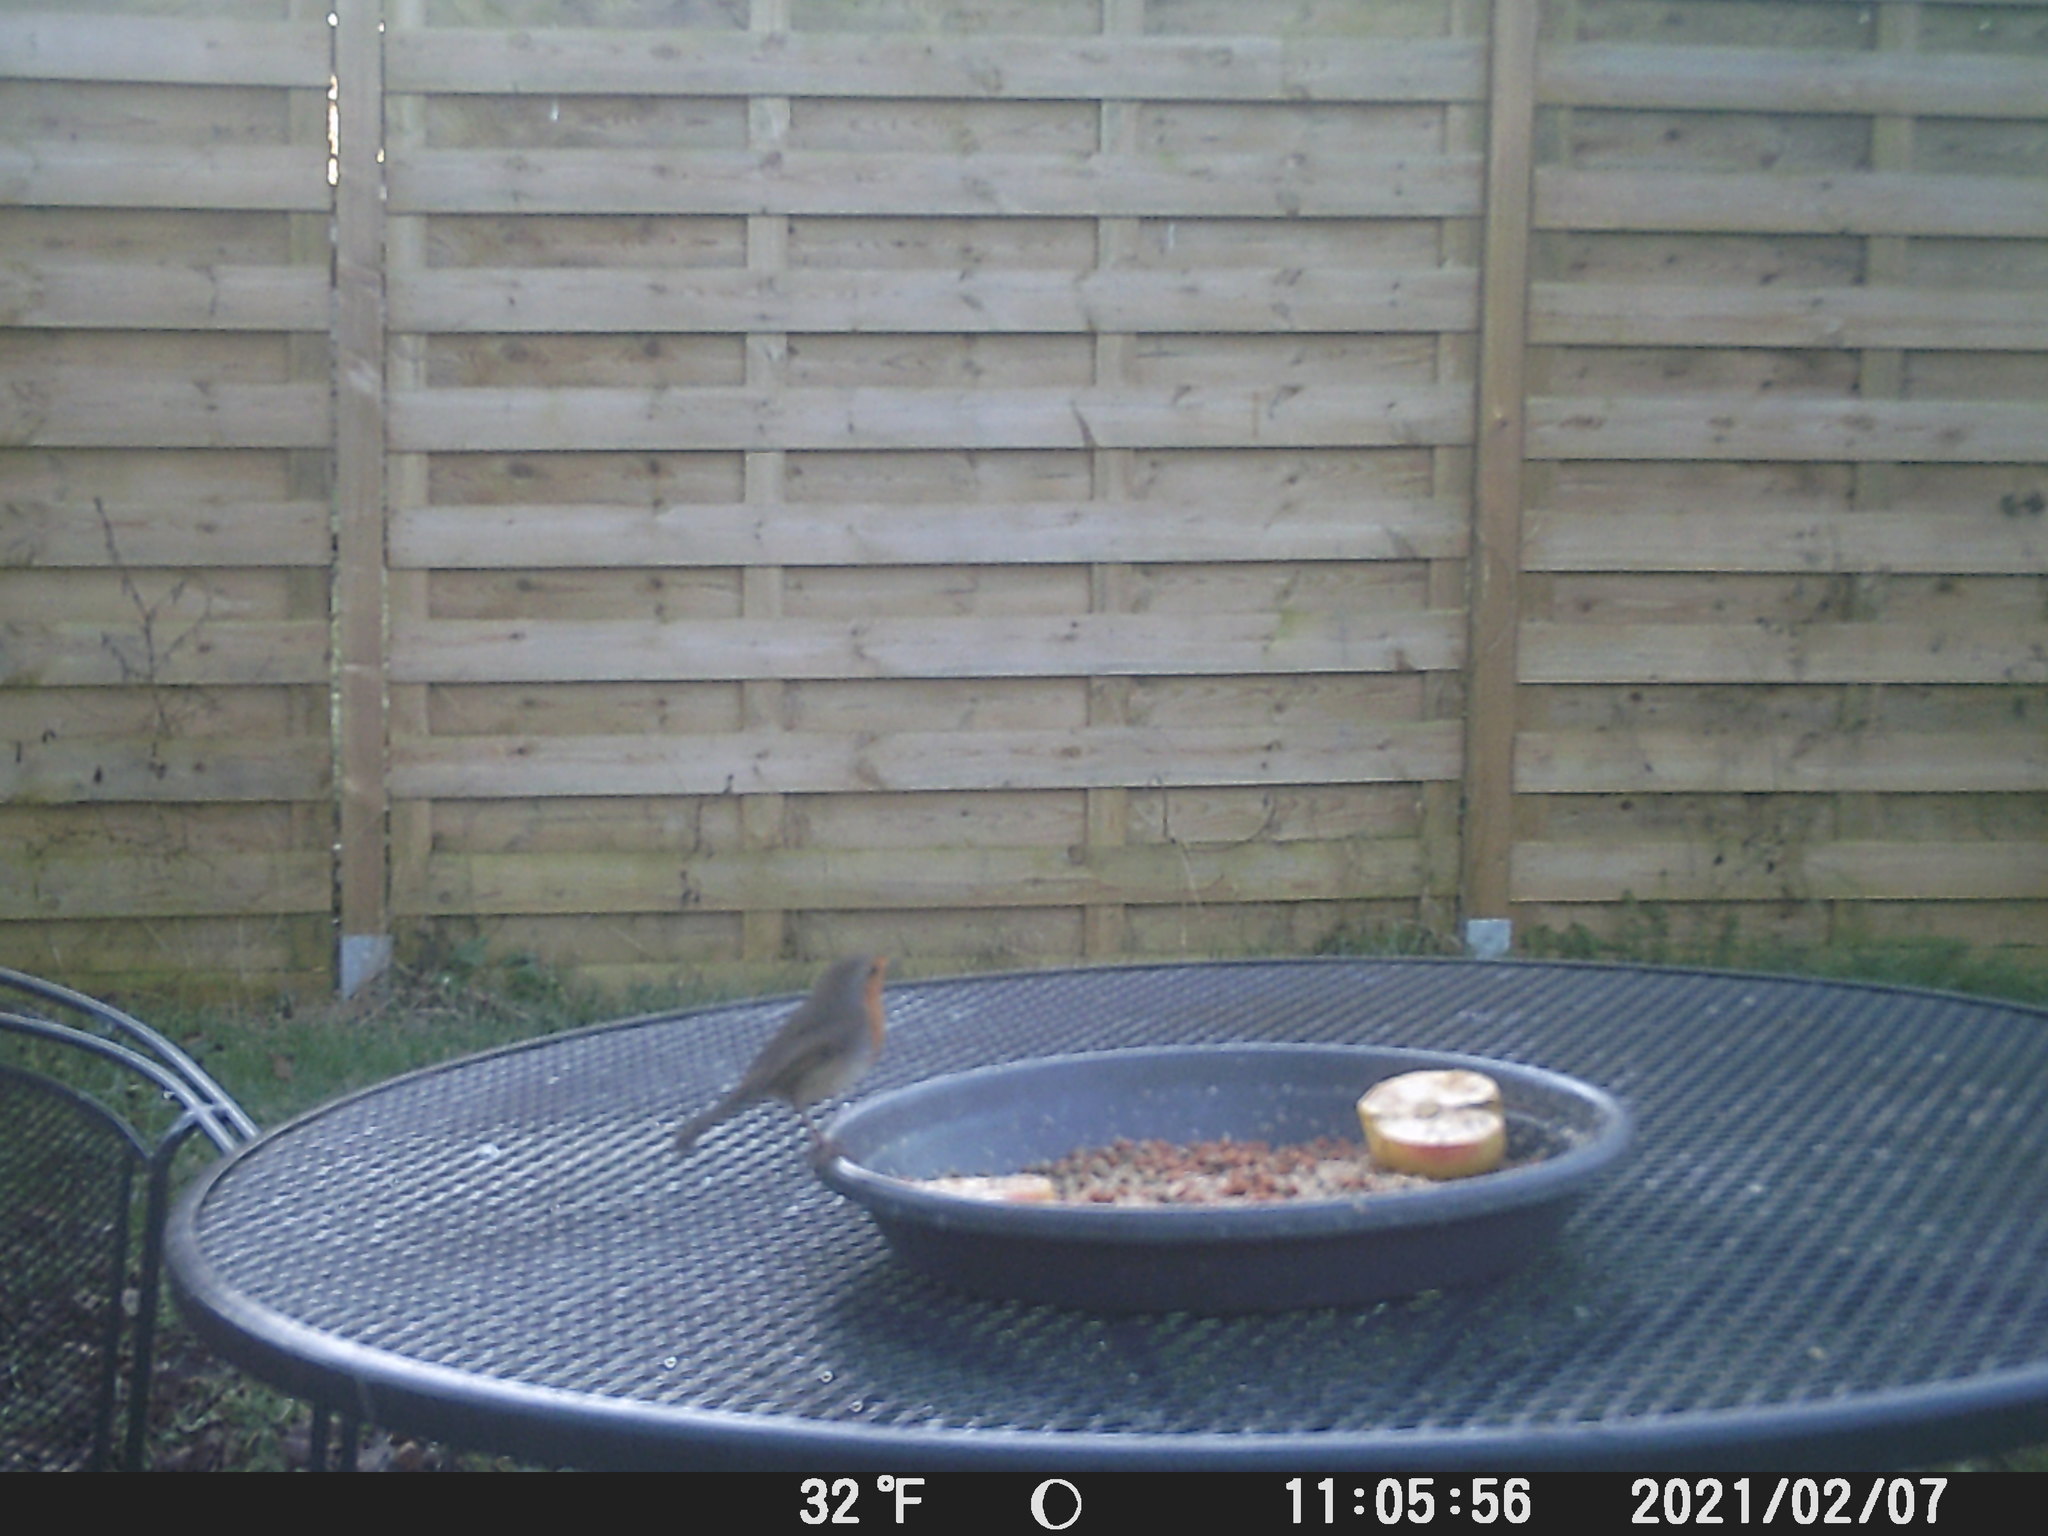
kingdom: Animalia
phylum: Chordata
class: Aves
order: Passeriformes
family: Muscicapidae
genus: Erithacus
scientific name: Erithacus rubecula
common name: European robin
